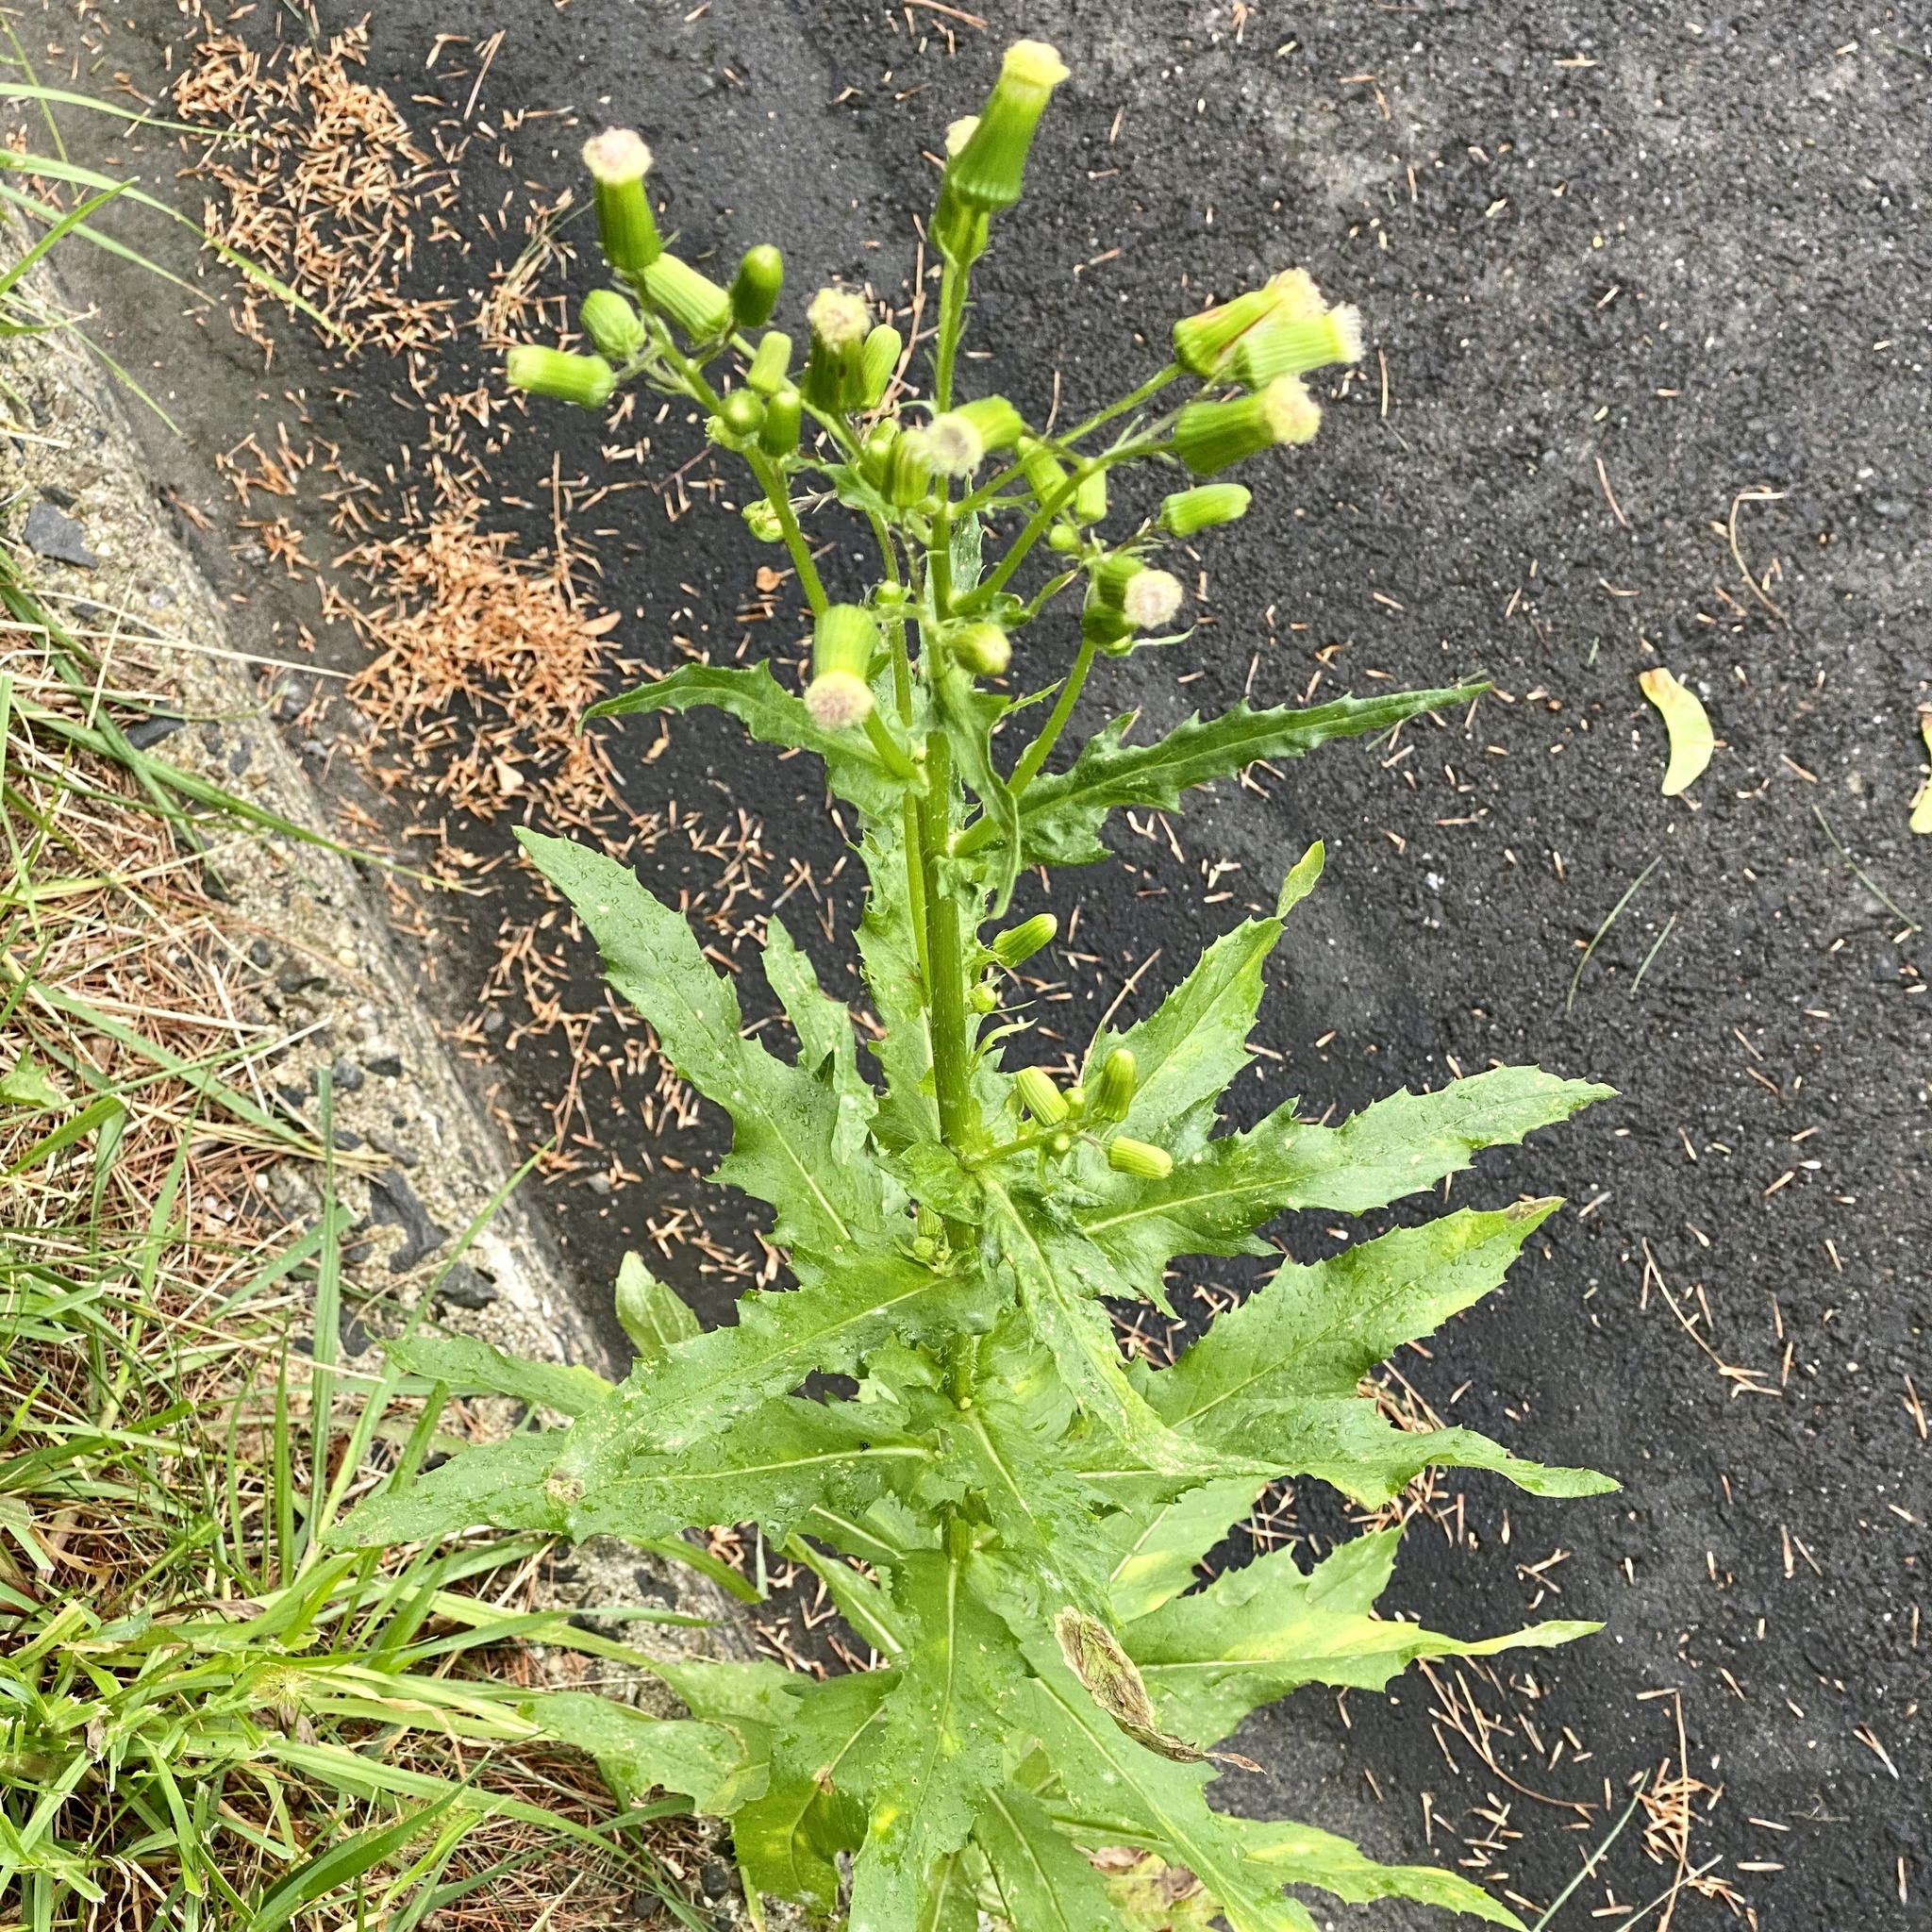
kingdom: Plantae
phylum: Tracheophyta
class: Magnoliopsida
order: Asterales
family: Asteraceae
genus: Erechtites
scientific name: Erechtites hieraciifolius
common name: American burnweed
